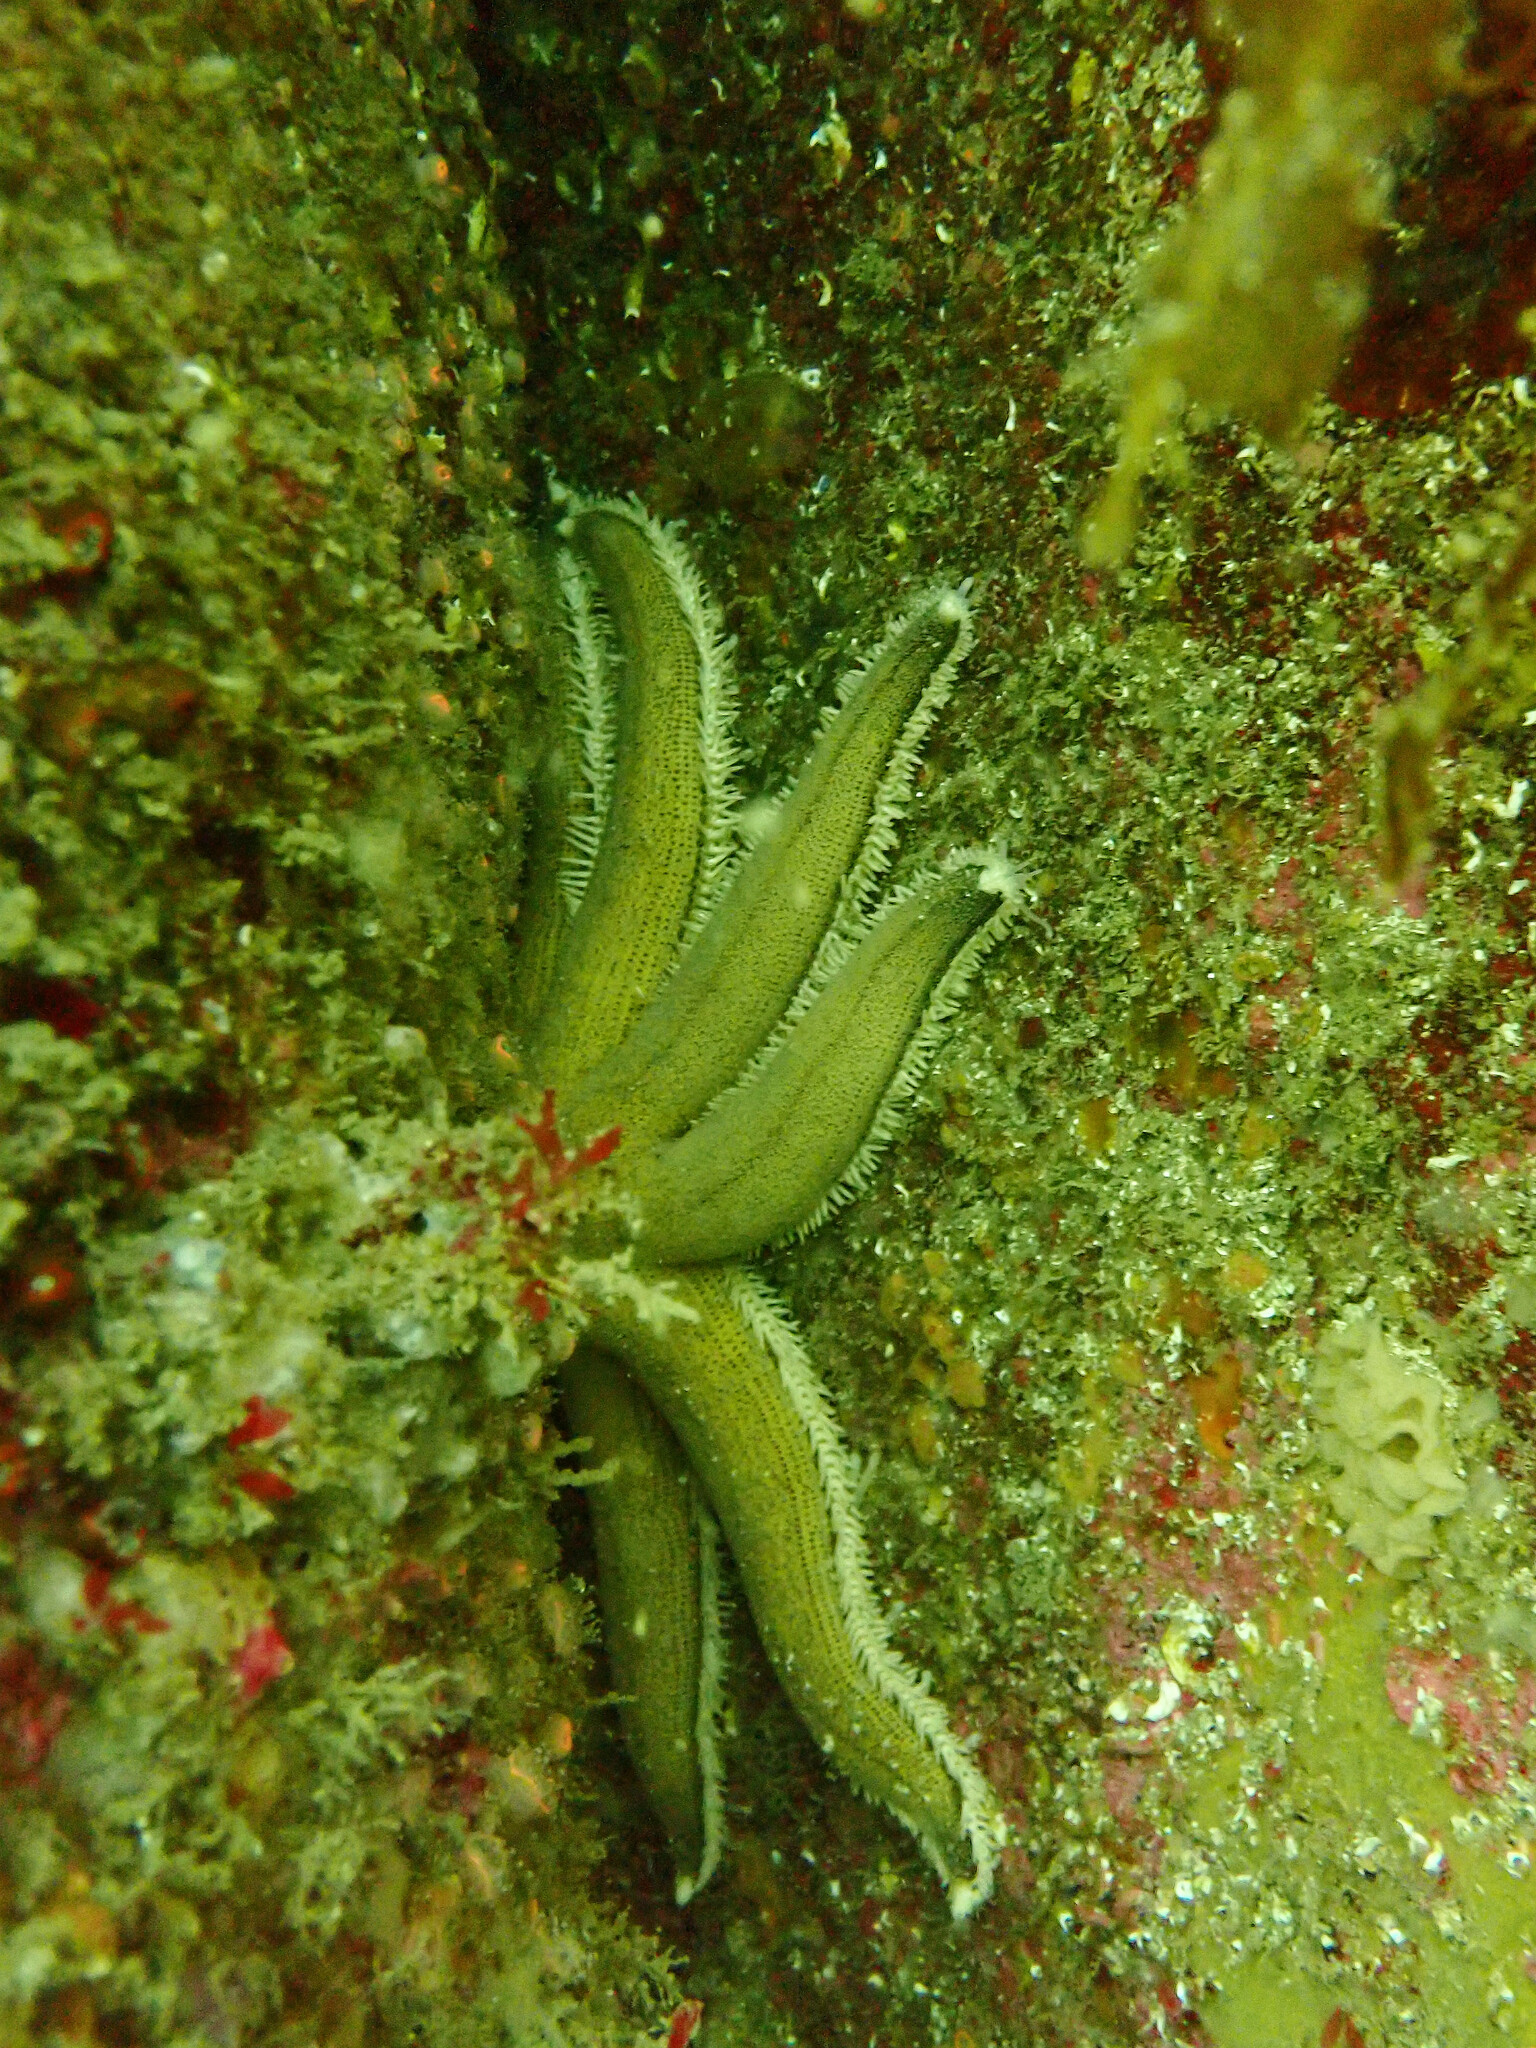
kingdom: Animalia
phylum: Echinodermata
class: Asteroidea
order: Paxillosida
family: Luidiidae
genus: Luidia
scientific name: Luidia ciliaris
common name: Seven-armed starfish
